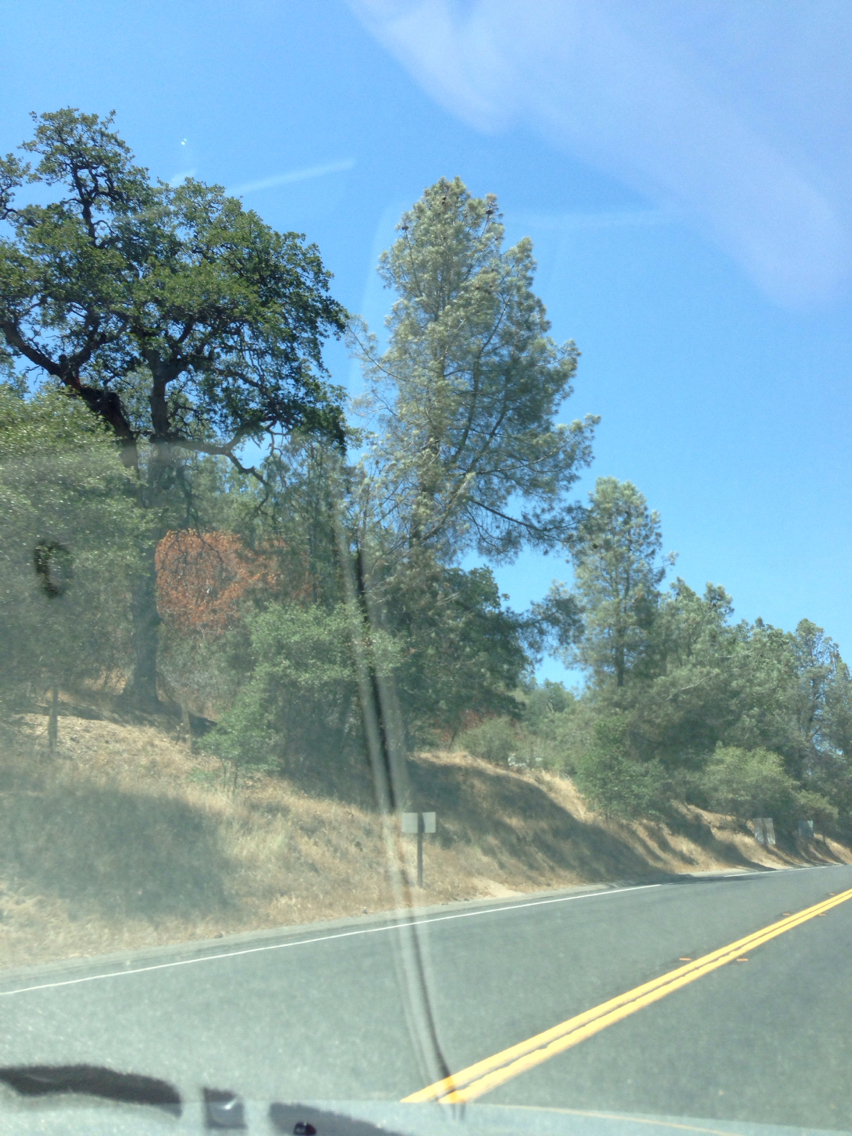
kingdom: Plantae
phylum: Tracheophyta
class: Pinopsida
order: Pinales
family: Pinaceae
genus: Pinus
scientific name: Pinus sabiniana
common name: Bull pine
